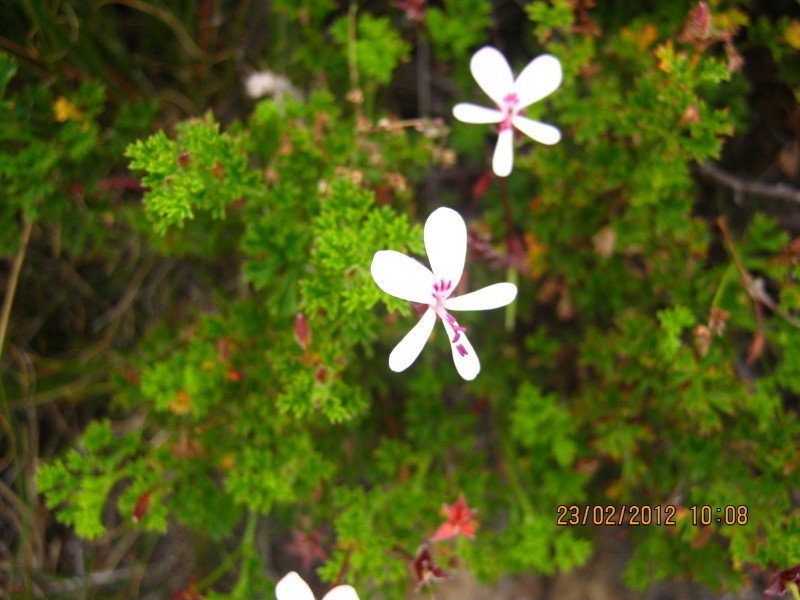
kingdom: Plantae
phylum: Tracheophyta
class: Magnoliopsida
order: Geraniales
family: Geraniaceae
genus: Pelargonium
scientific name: Pelargonium fruticosum
